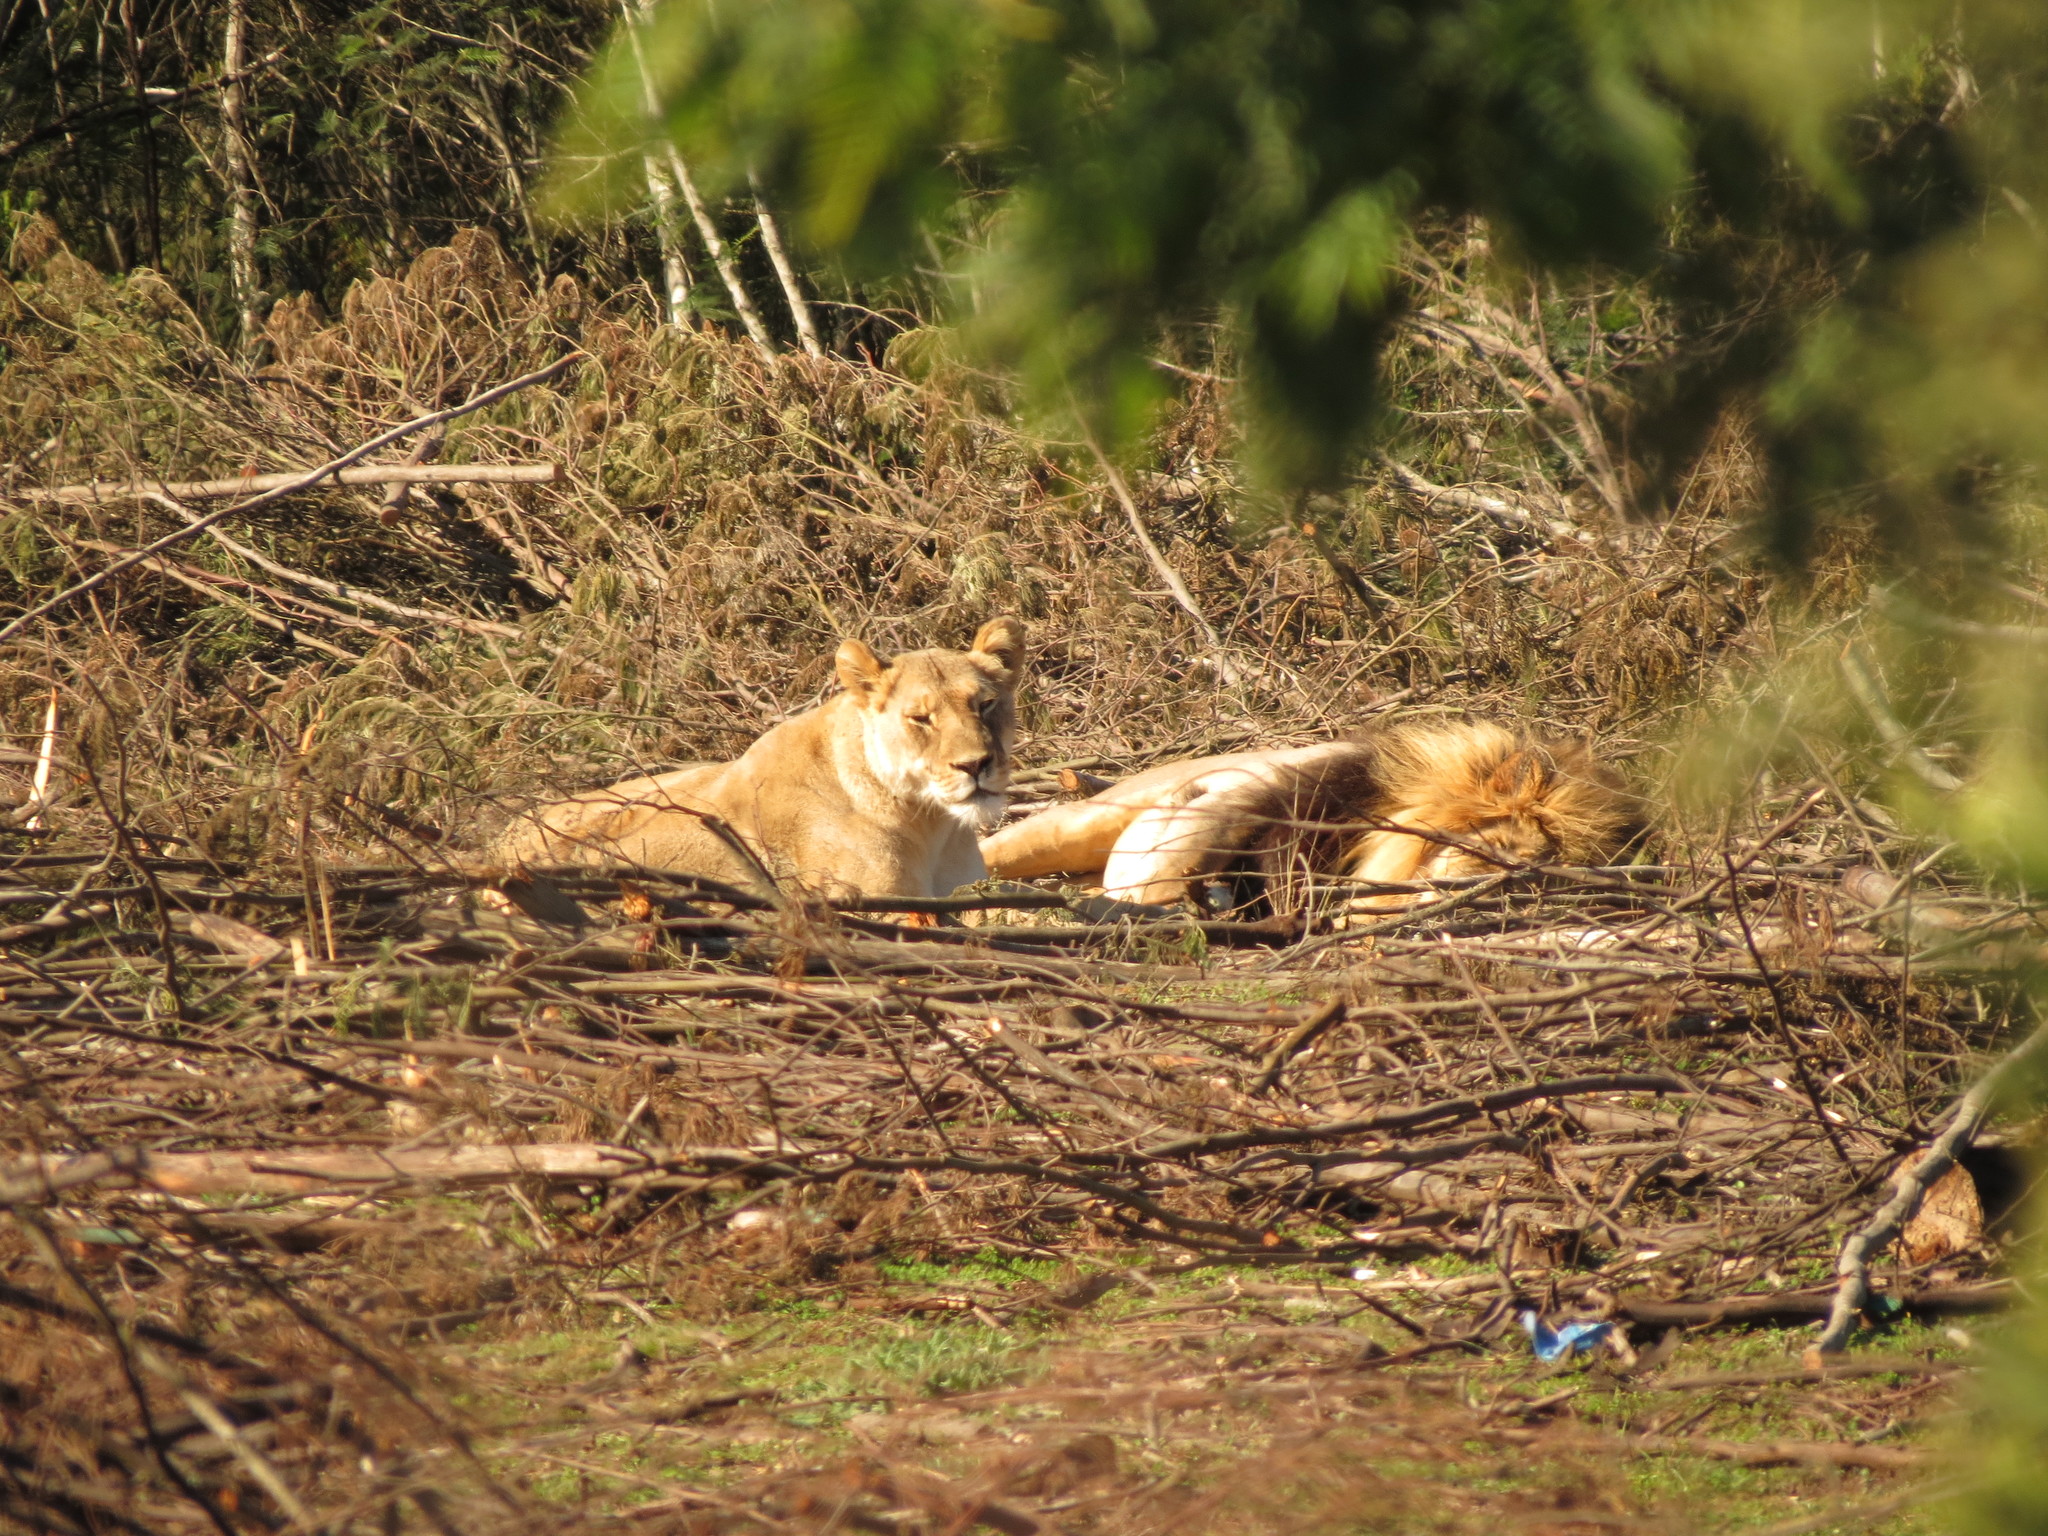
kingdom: Animalia
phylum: Chordata
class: Mammalia
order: Carnivora
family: Felidae
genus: Panthera
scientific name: Panthera leo
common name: Lion
